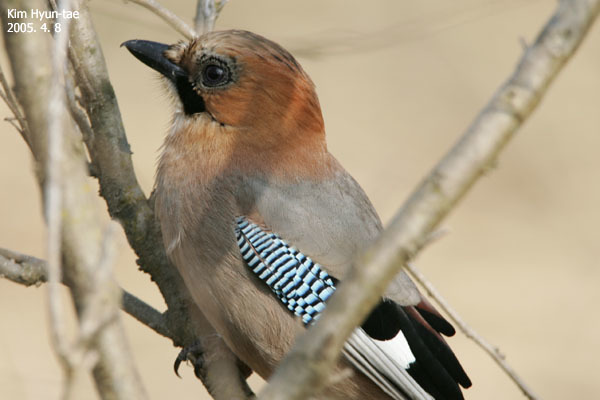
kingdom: Animalia
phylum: Chordata
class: Aves
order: Passeriformes
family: Corvidae
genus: Garrulus
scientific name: Garrulus glandarius
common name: Eurasian jay
